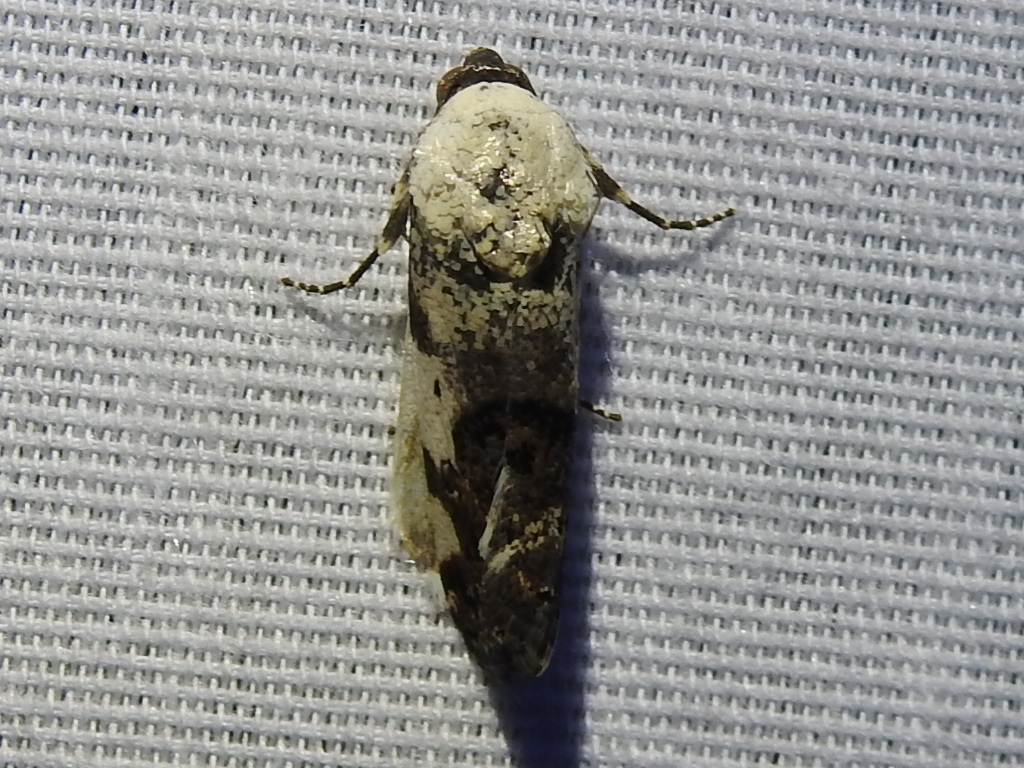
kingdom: Animalia
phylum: Arthropoda
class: Insecta
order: Lepidoptera
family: Noctuidae
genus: Acontia
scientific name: Acontia aprica
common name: Nun
